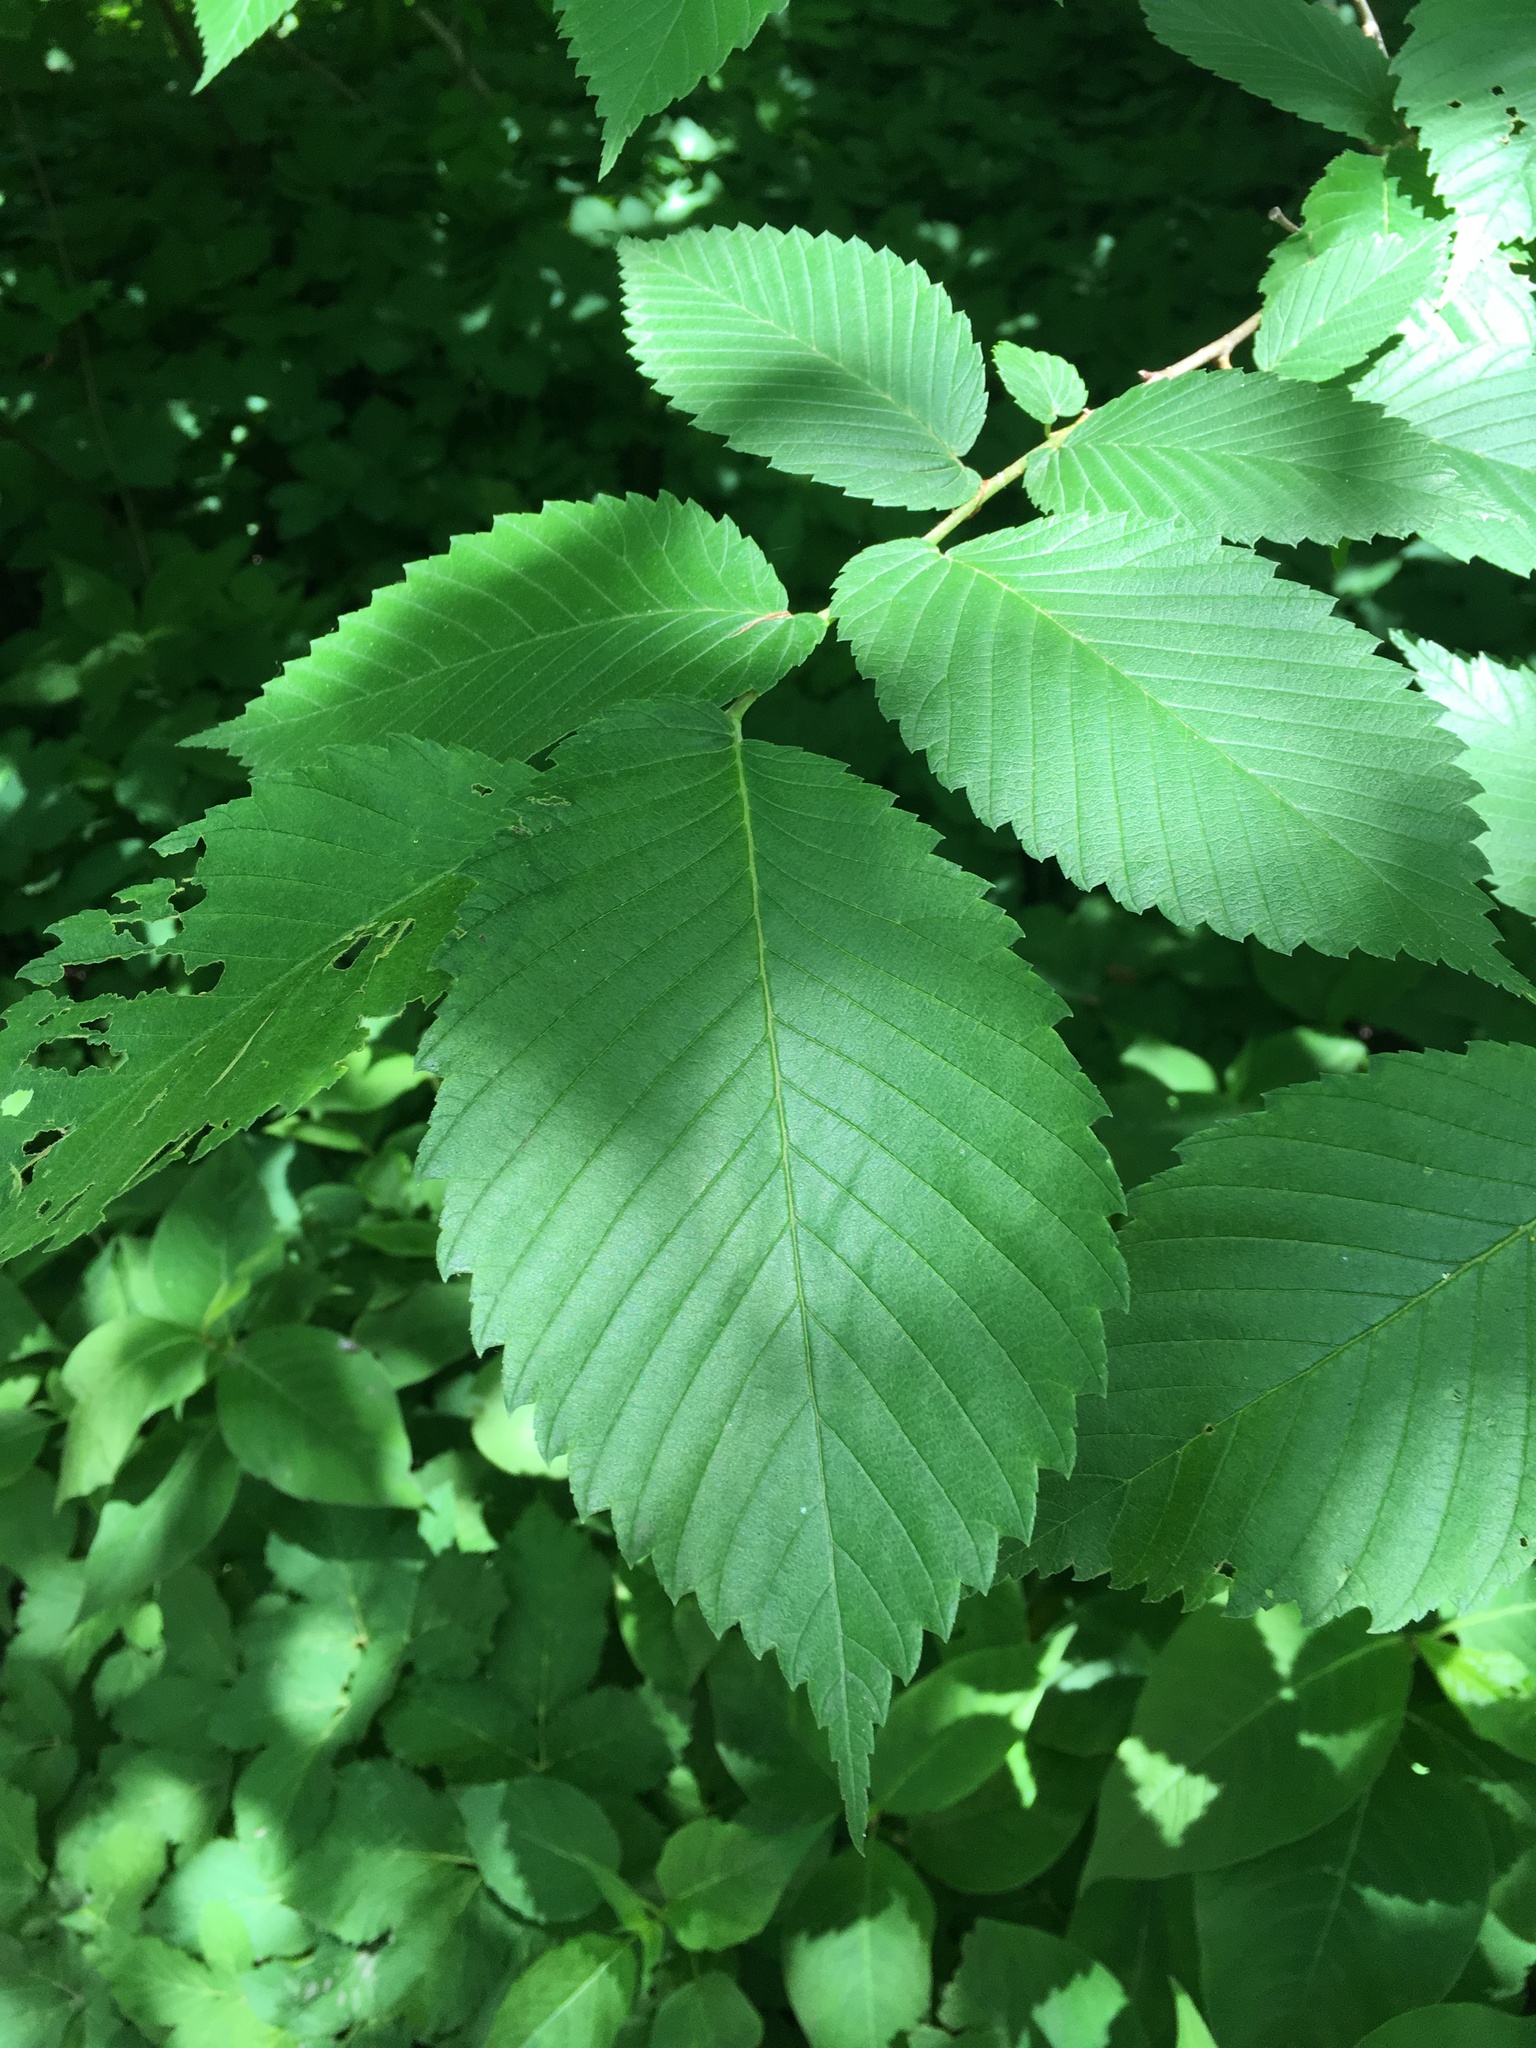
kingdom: Plantae
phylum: Tracheophyta
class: Magnoliopsida
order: Rosales
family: Ulmaceae
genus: Ulmus
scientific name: Ulmus americana
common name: American elm
